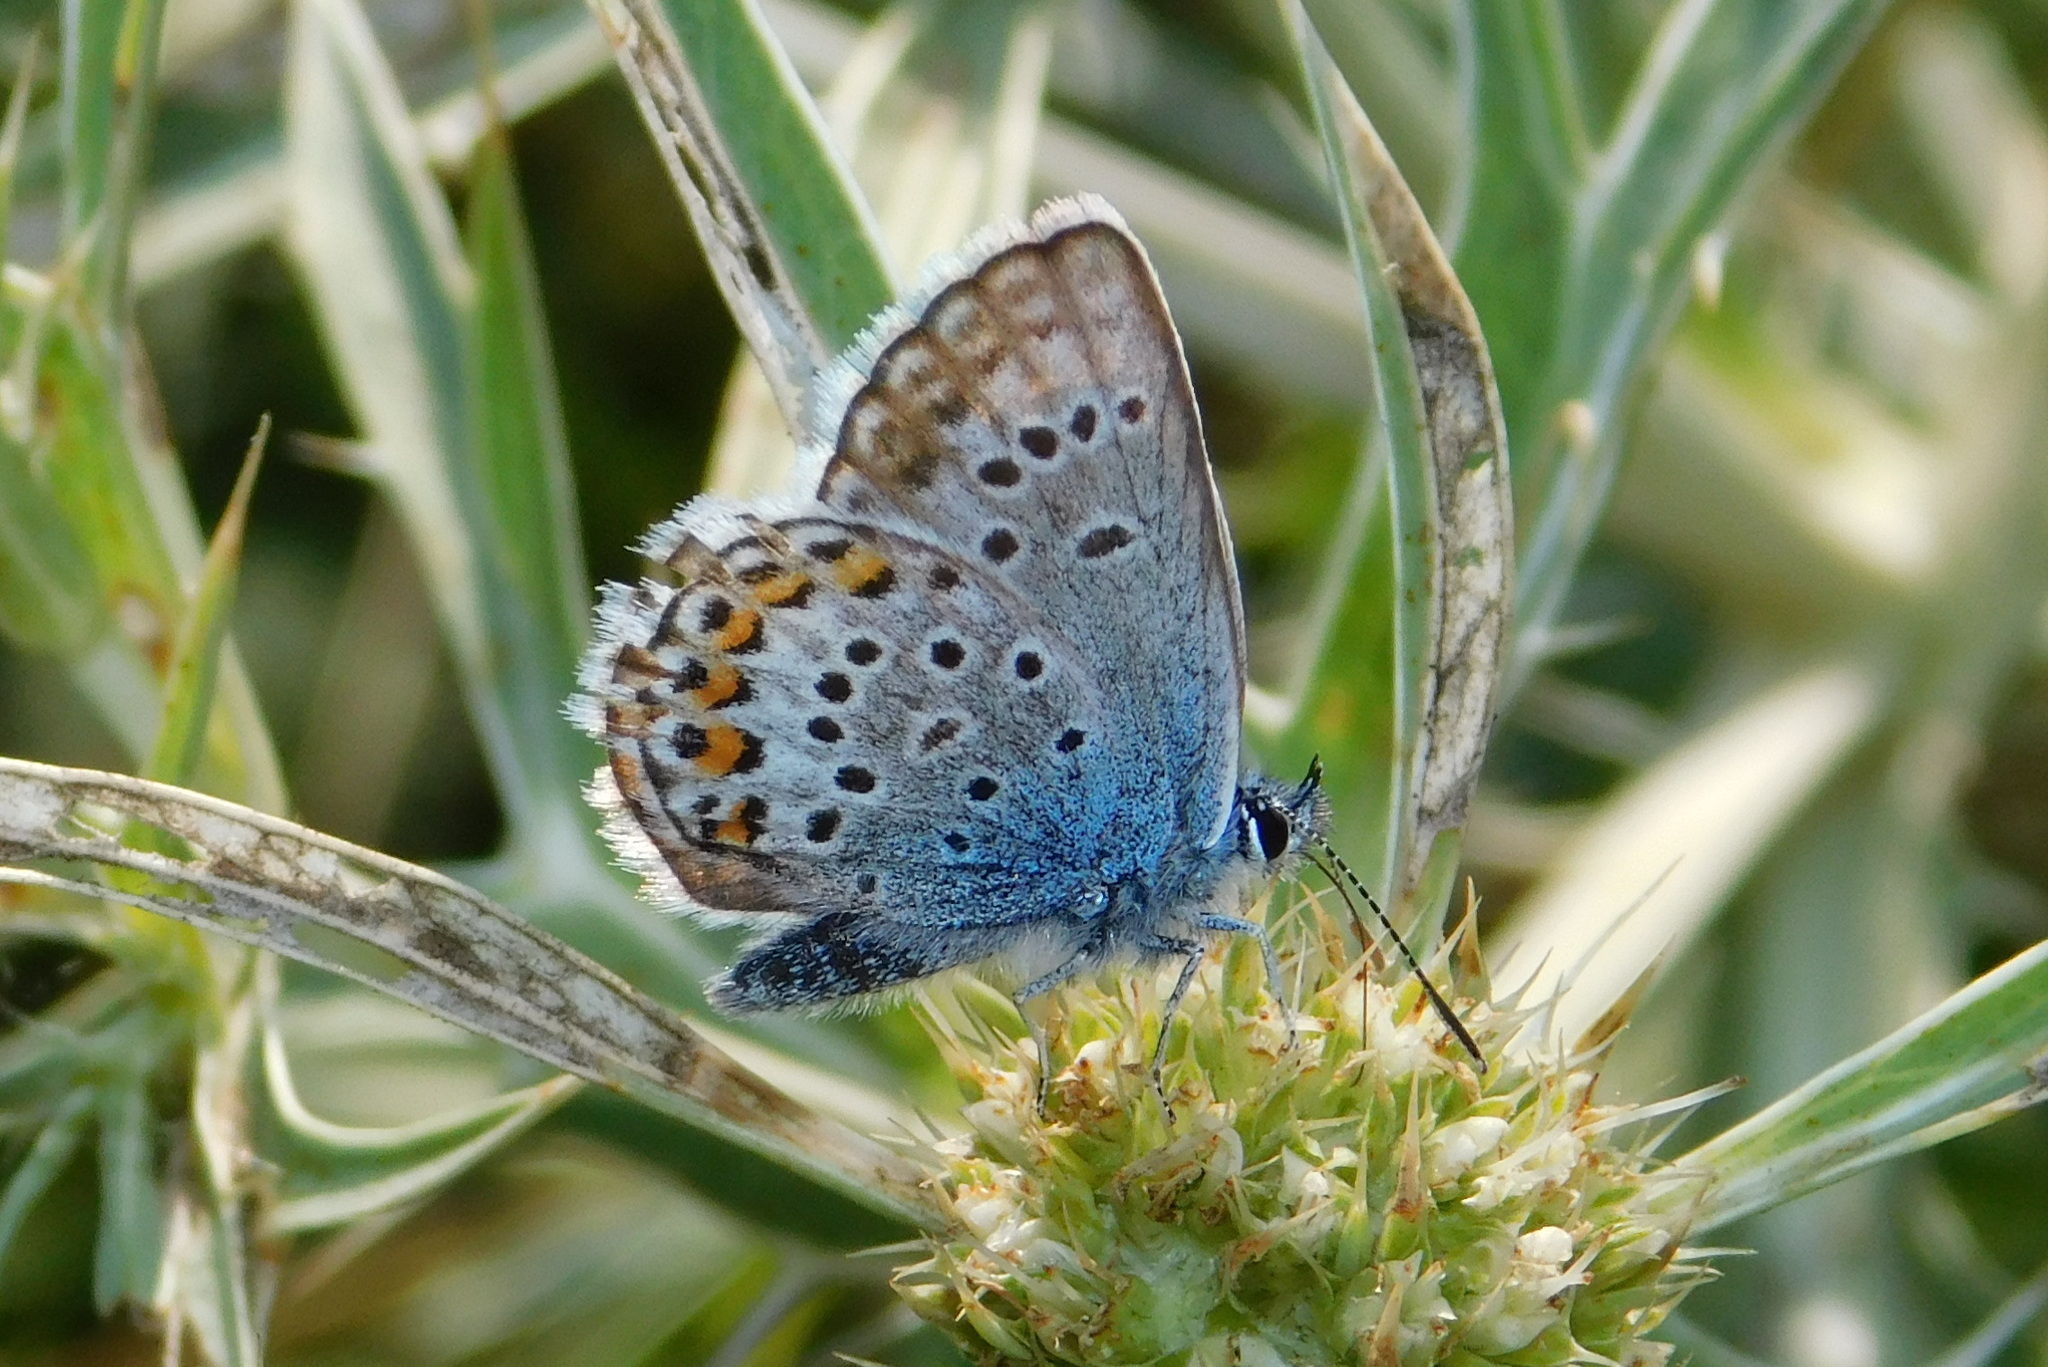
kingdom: Animalia
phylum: Arthropoda
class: Insecta
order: Lepidoptera
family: Lycaenidae
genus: Plebejus
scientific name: Plebejus argus
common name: Silver-studded blue
